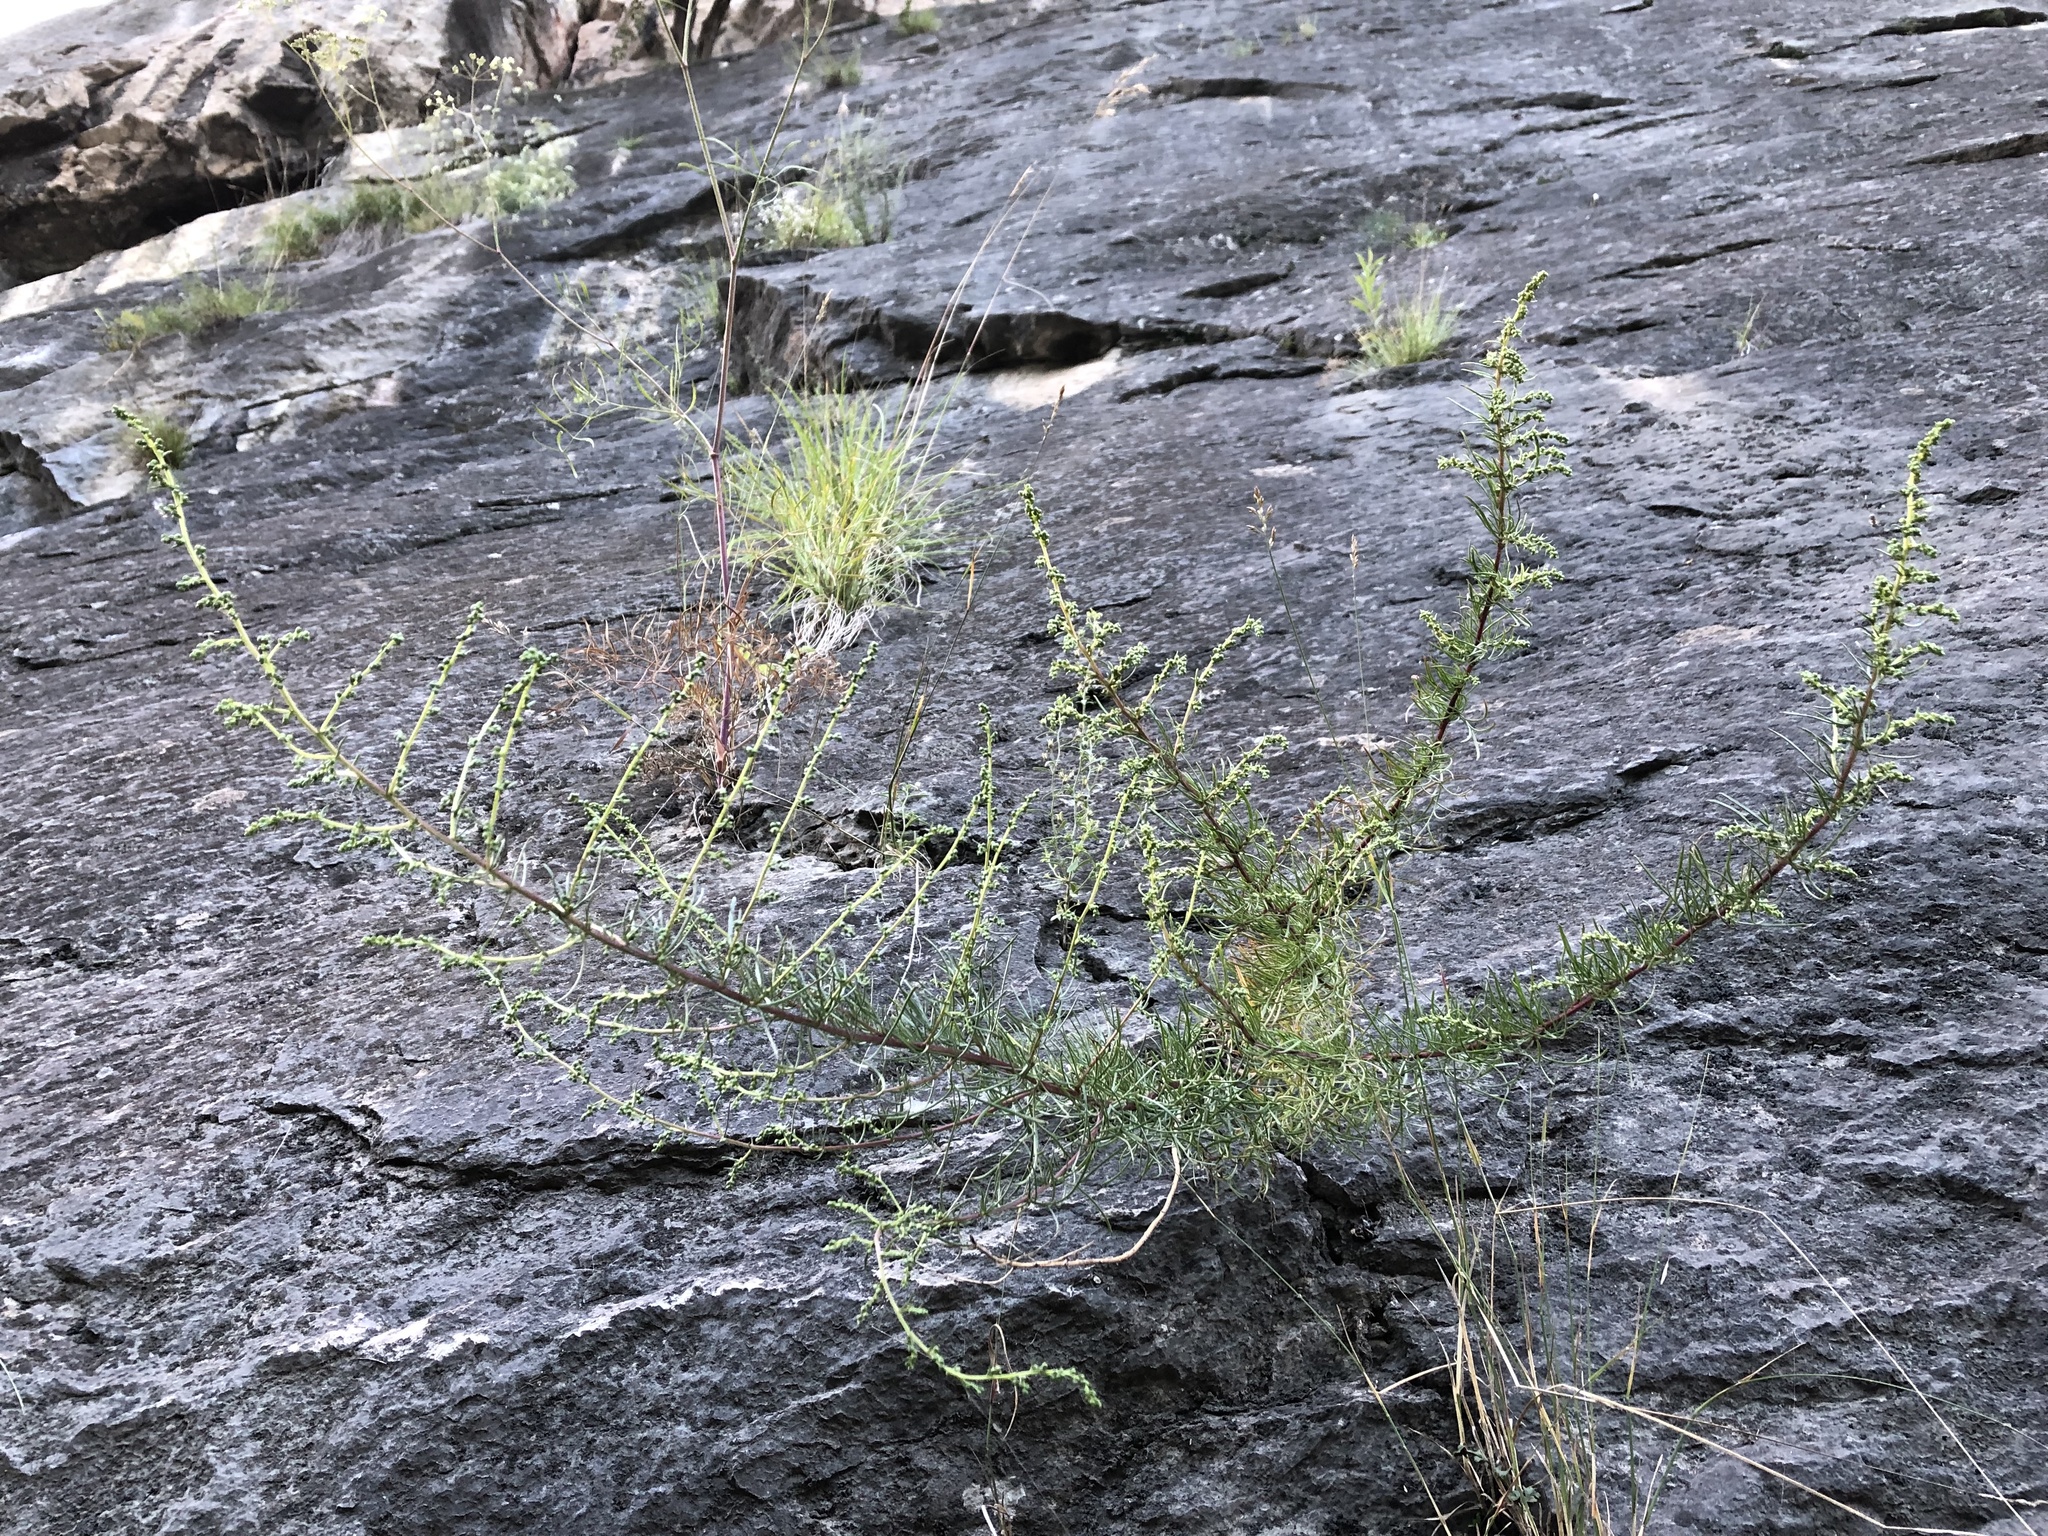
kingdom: Plantae
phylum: Tracheophyta
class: Magnoliopsida
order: Asterales
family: Asteraceae
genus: Artemisia
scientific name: Artemisia campestris
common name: Field wormwood
